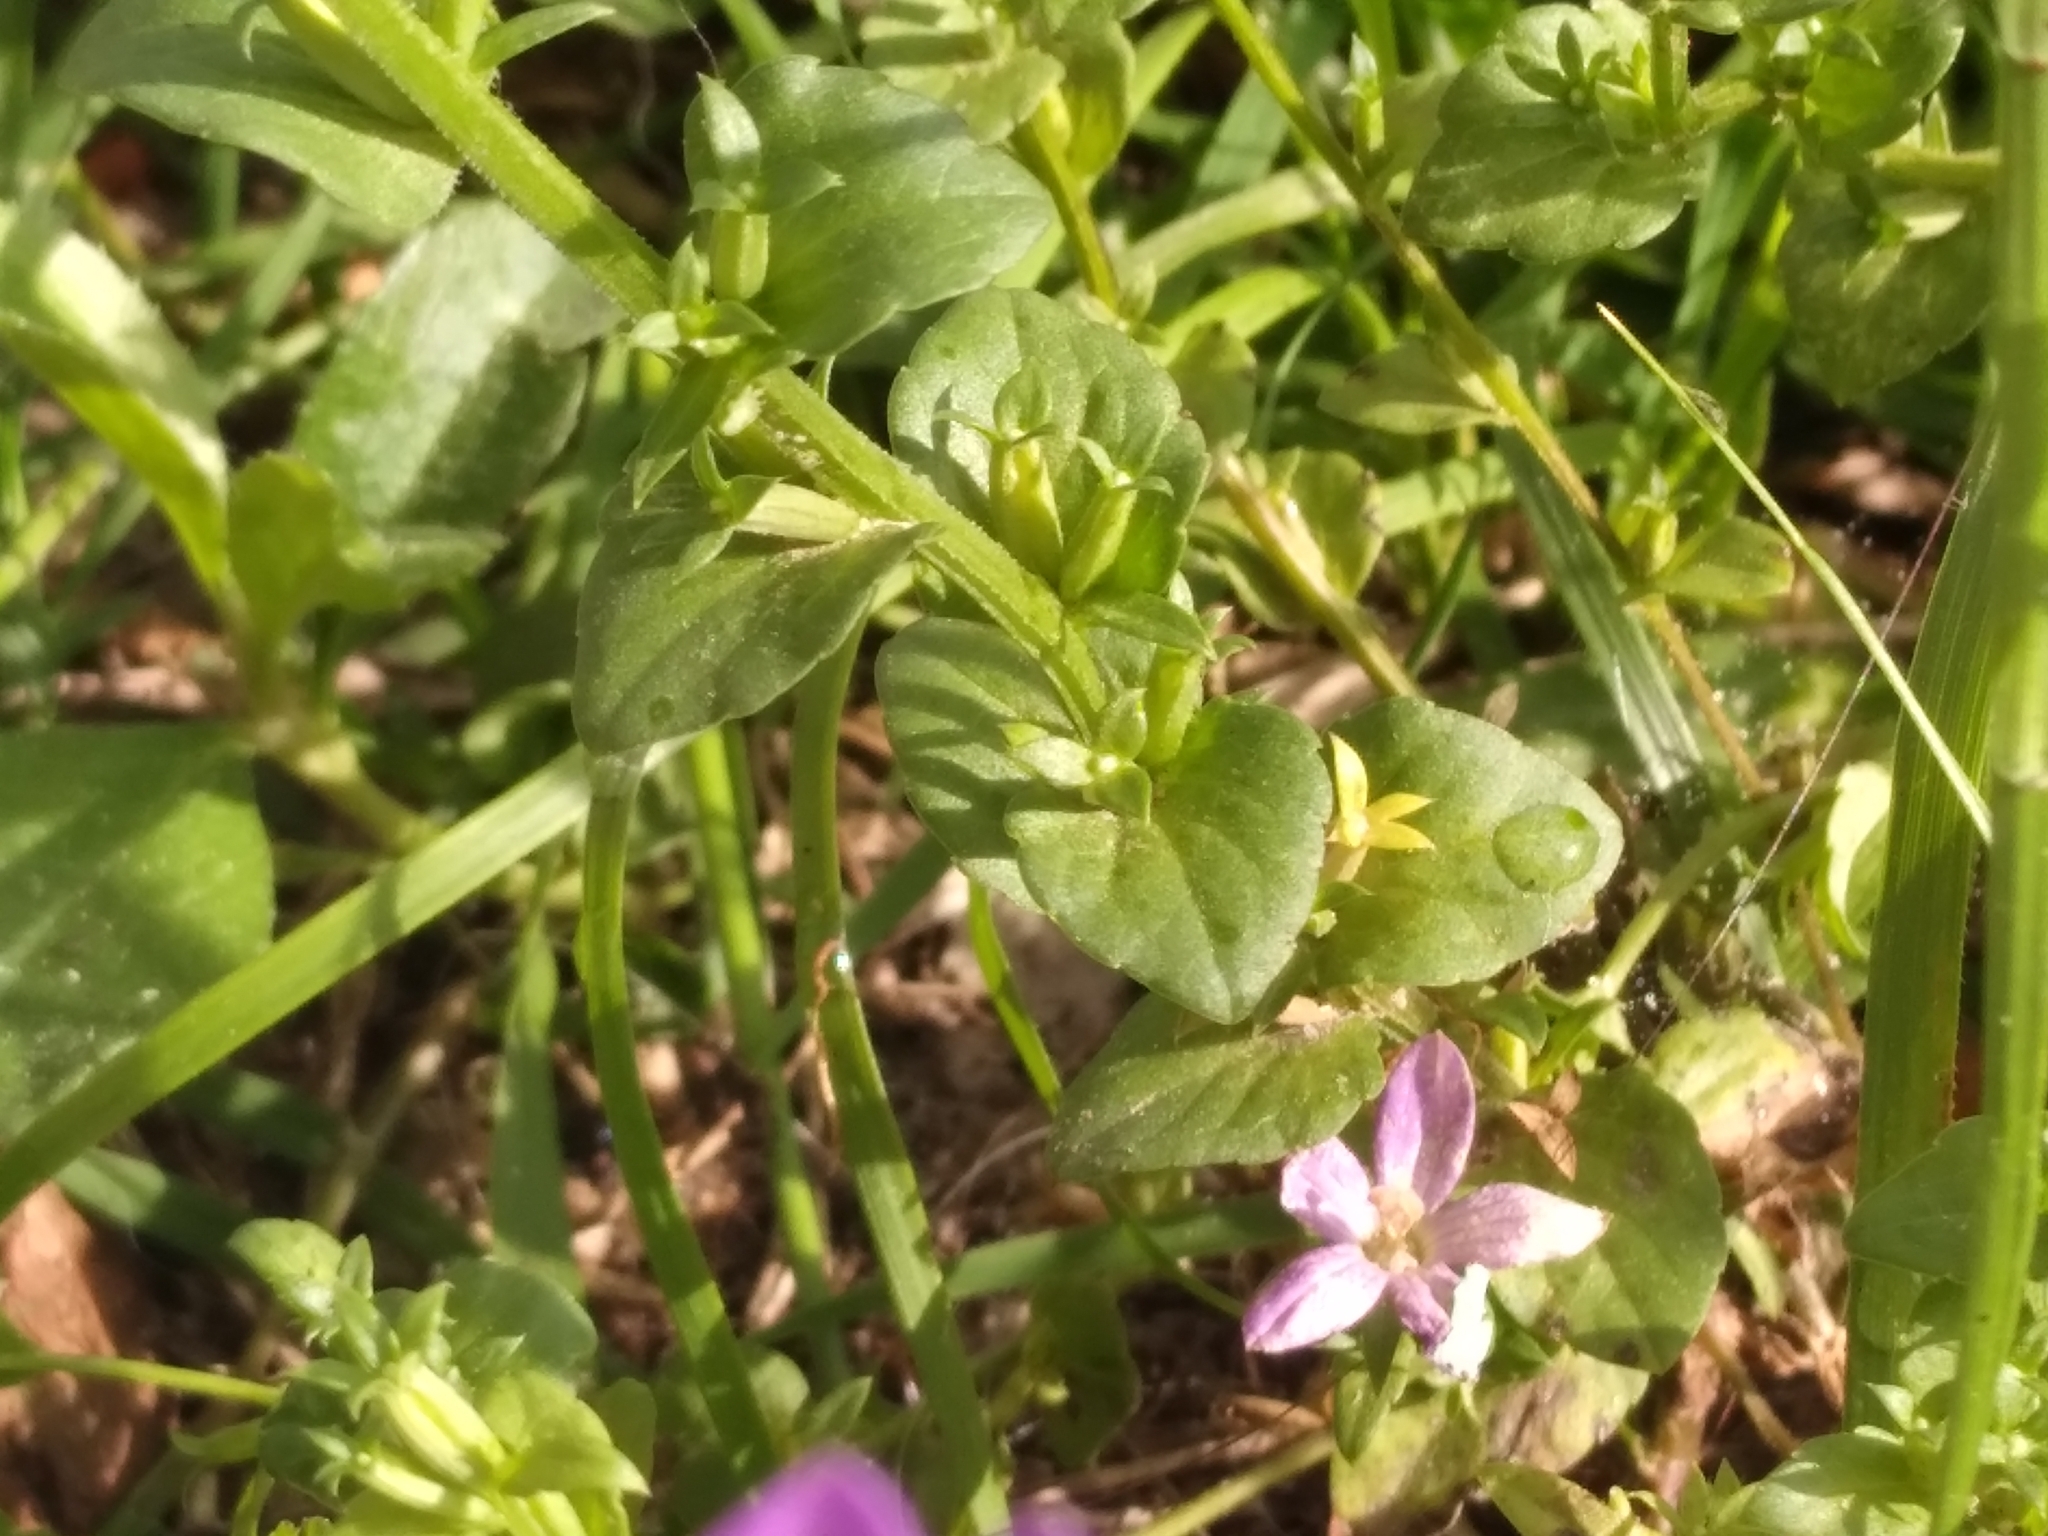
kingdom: Plantae
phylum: Tracheophyta
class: Magnoliopsida
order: Asterales
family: Campanulaceae
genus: Triodanis
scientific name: Triodanis biflora
